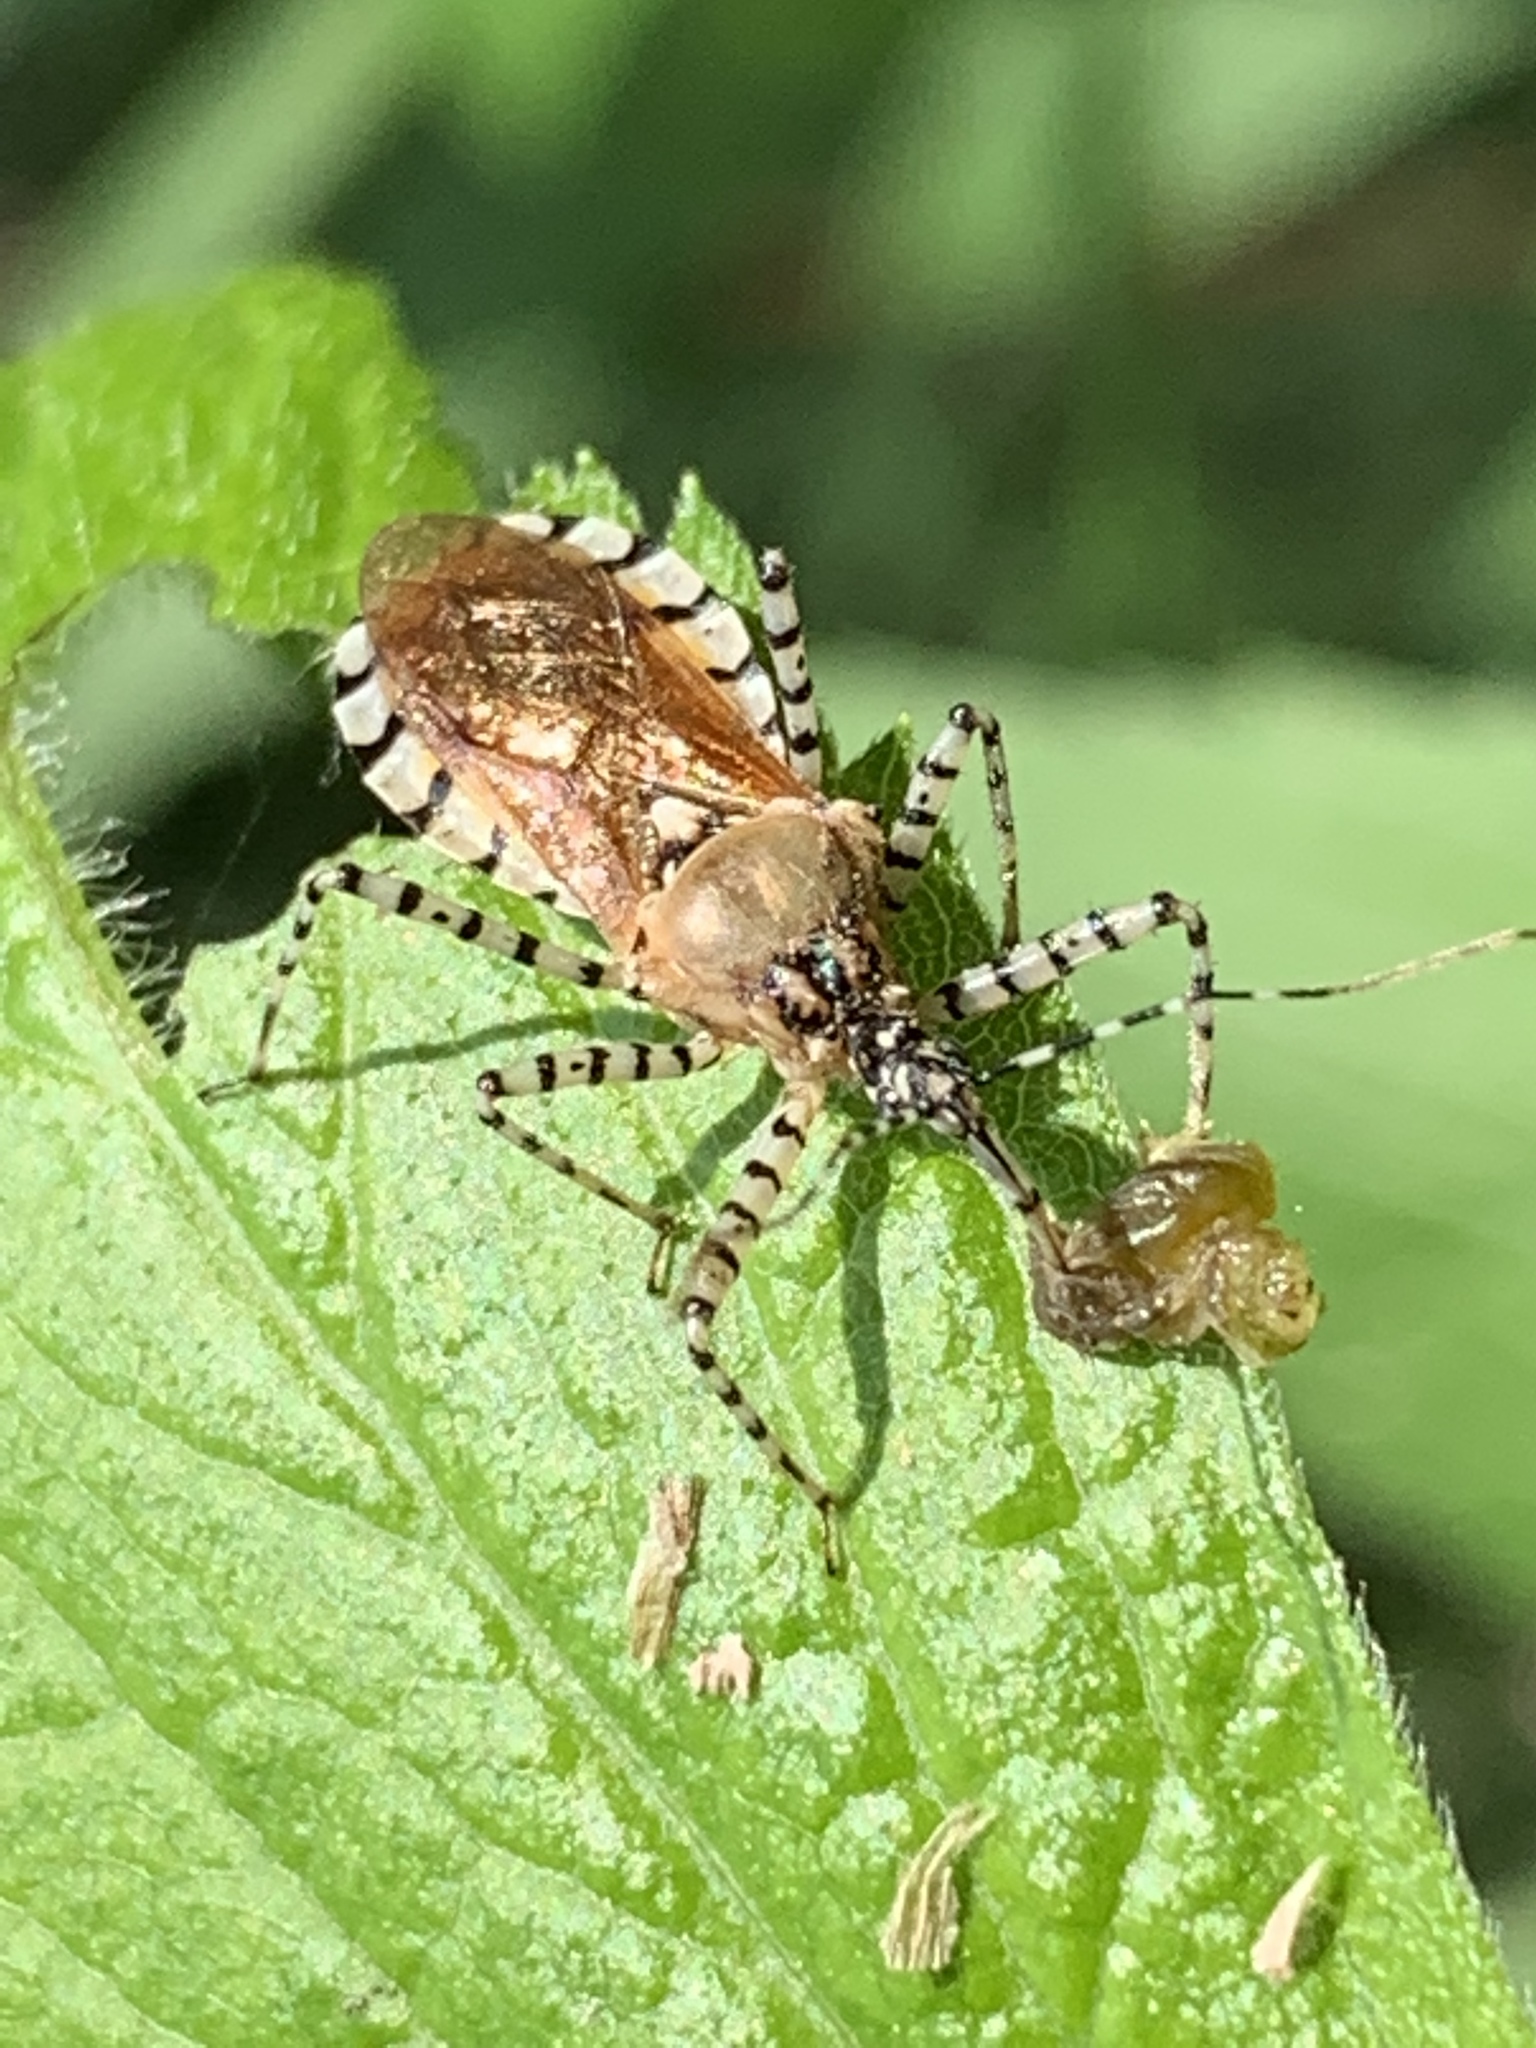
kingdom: Animalia
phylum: Arthropoda
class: Insecta
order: Hemiptera
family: Reduviidae
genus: Pselliopus
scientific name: Pselliopus cinctus
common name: Ringed assassin bug
